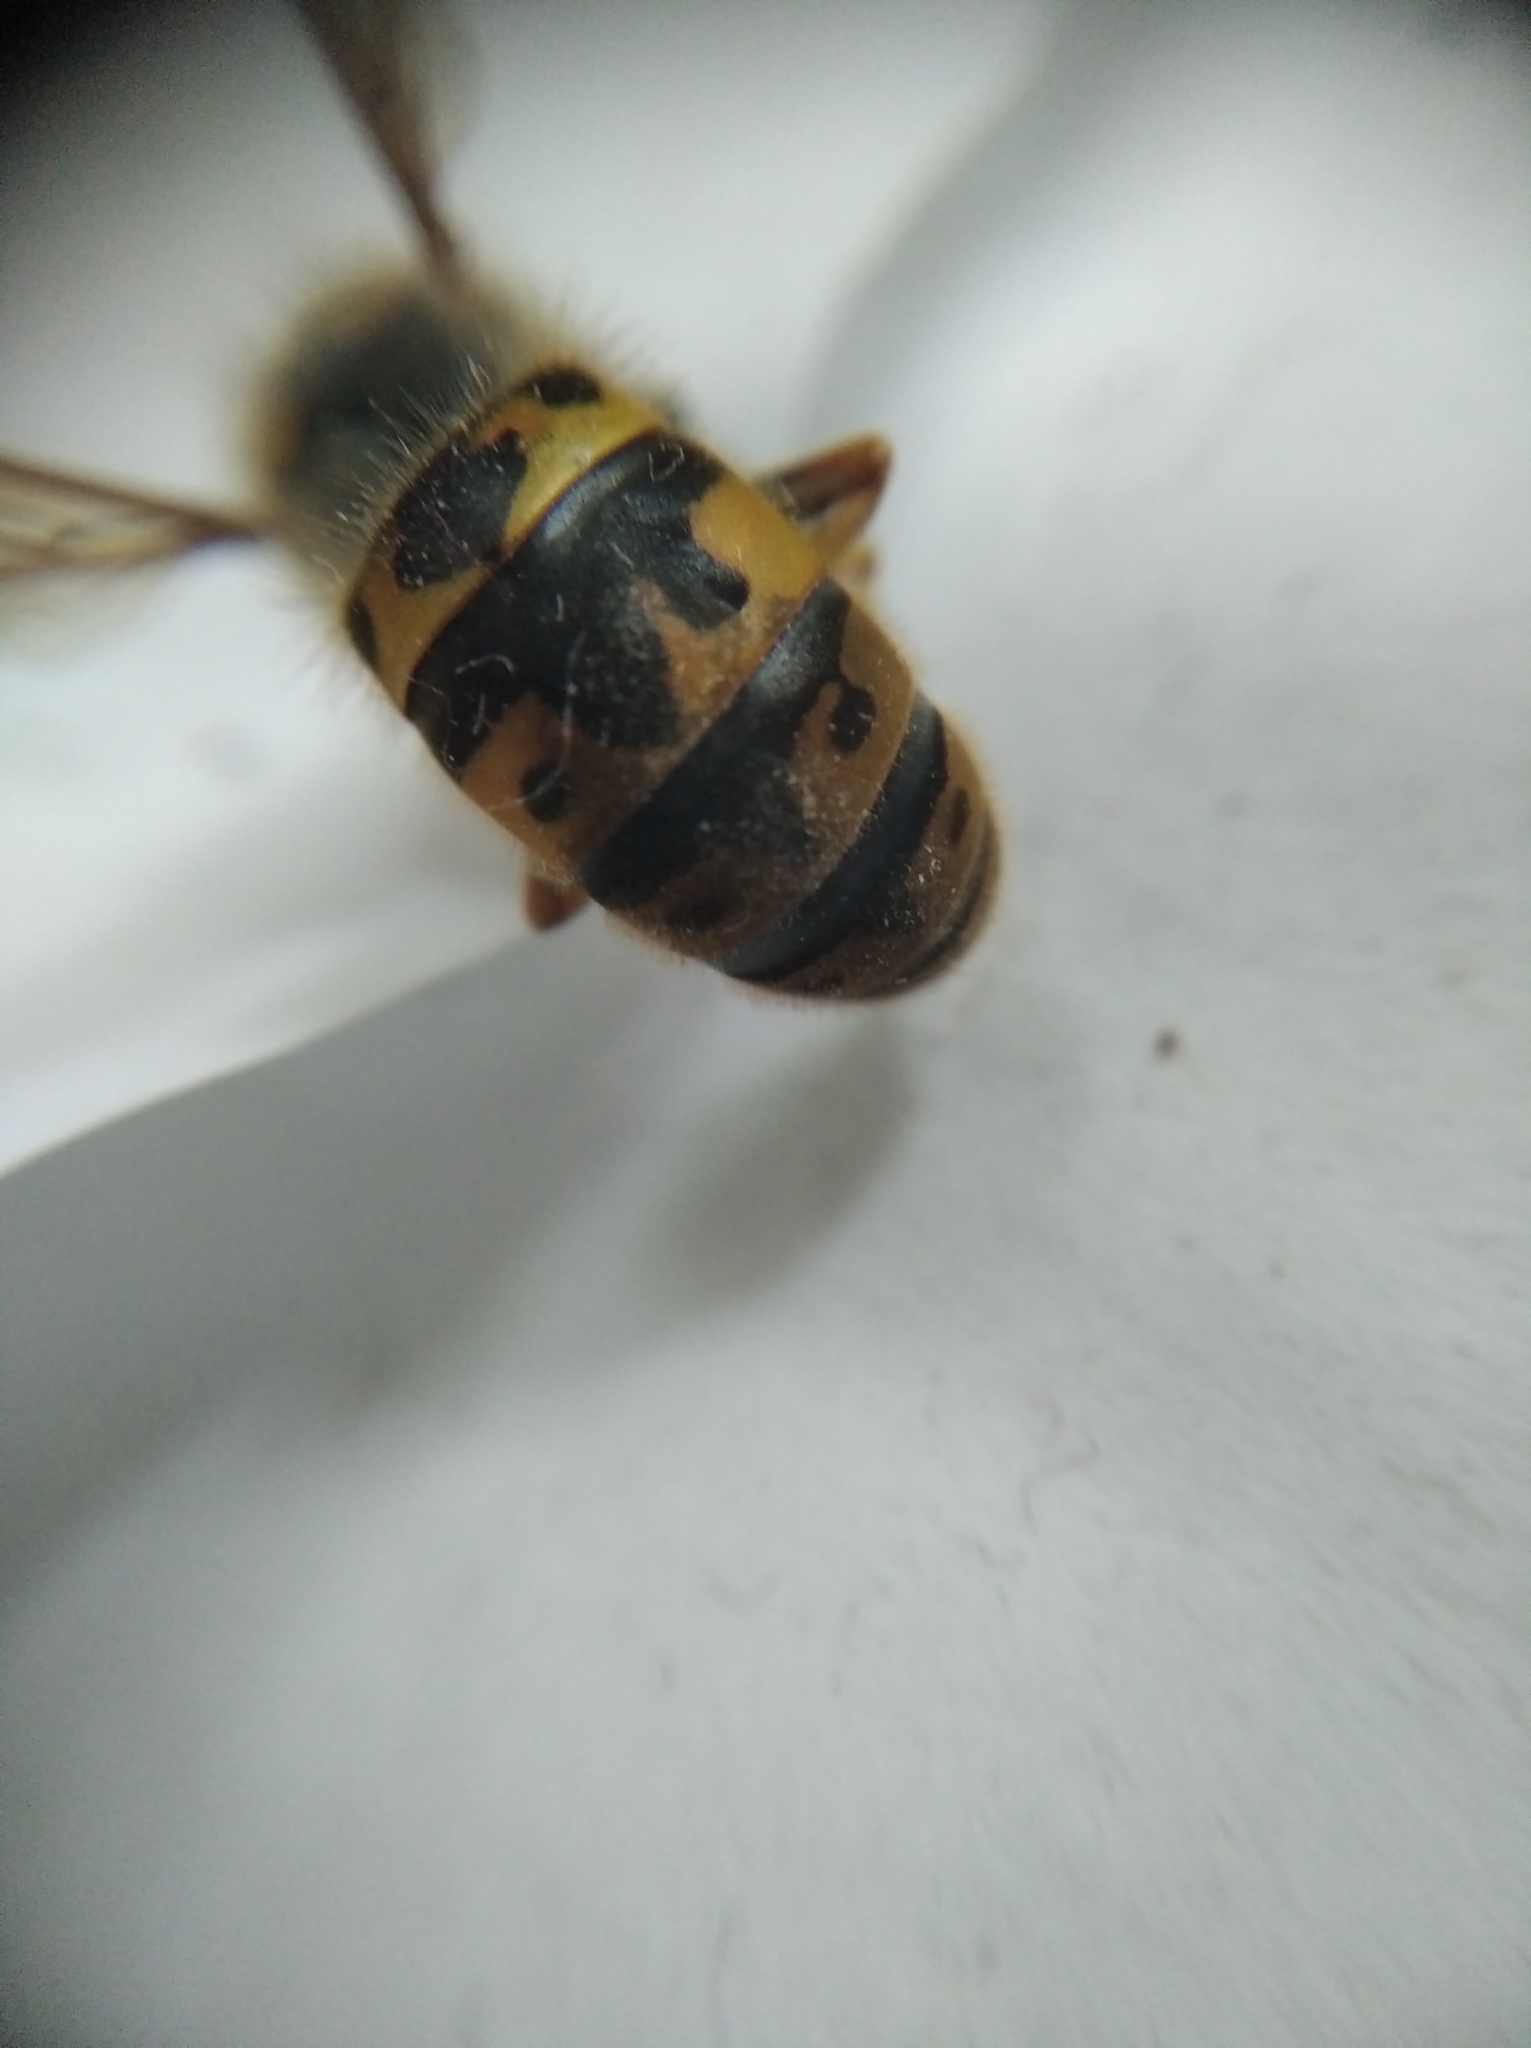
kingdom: Animalia
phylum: Arthropoda
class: Insecta
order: Hymenoptera
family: Vespidae
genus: Vespula
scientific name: Vespula germanica
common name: German wasp
